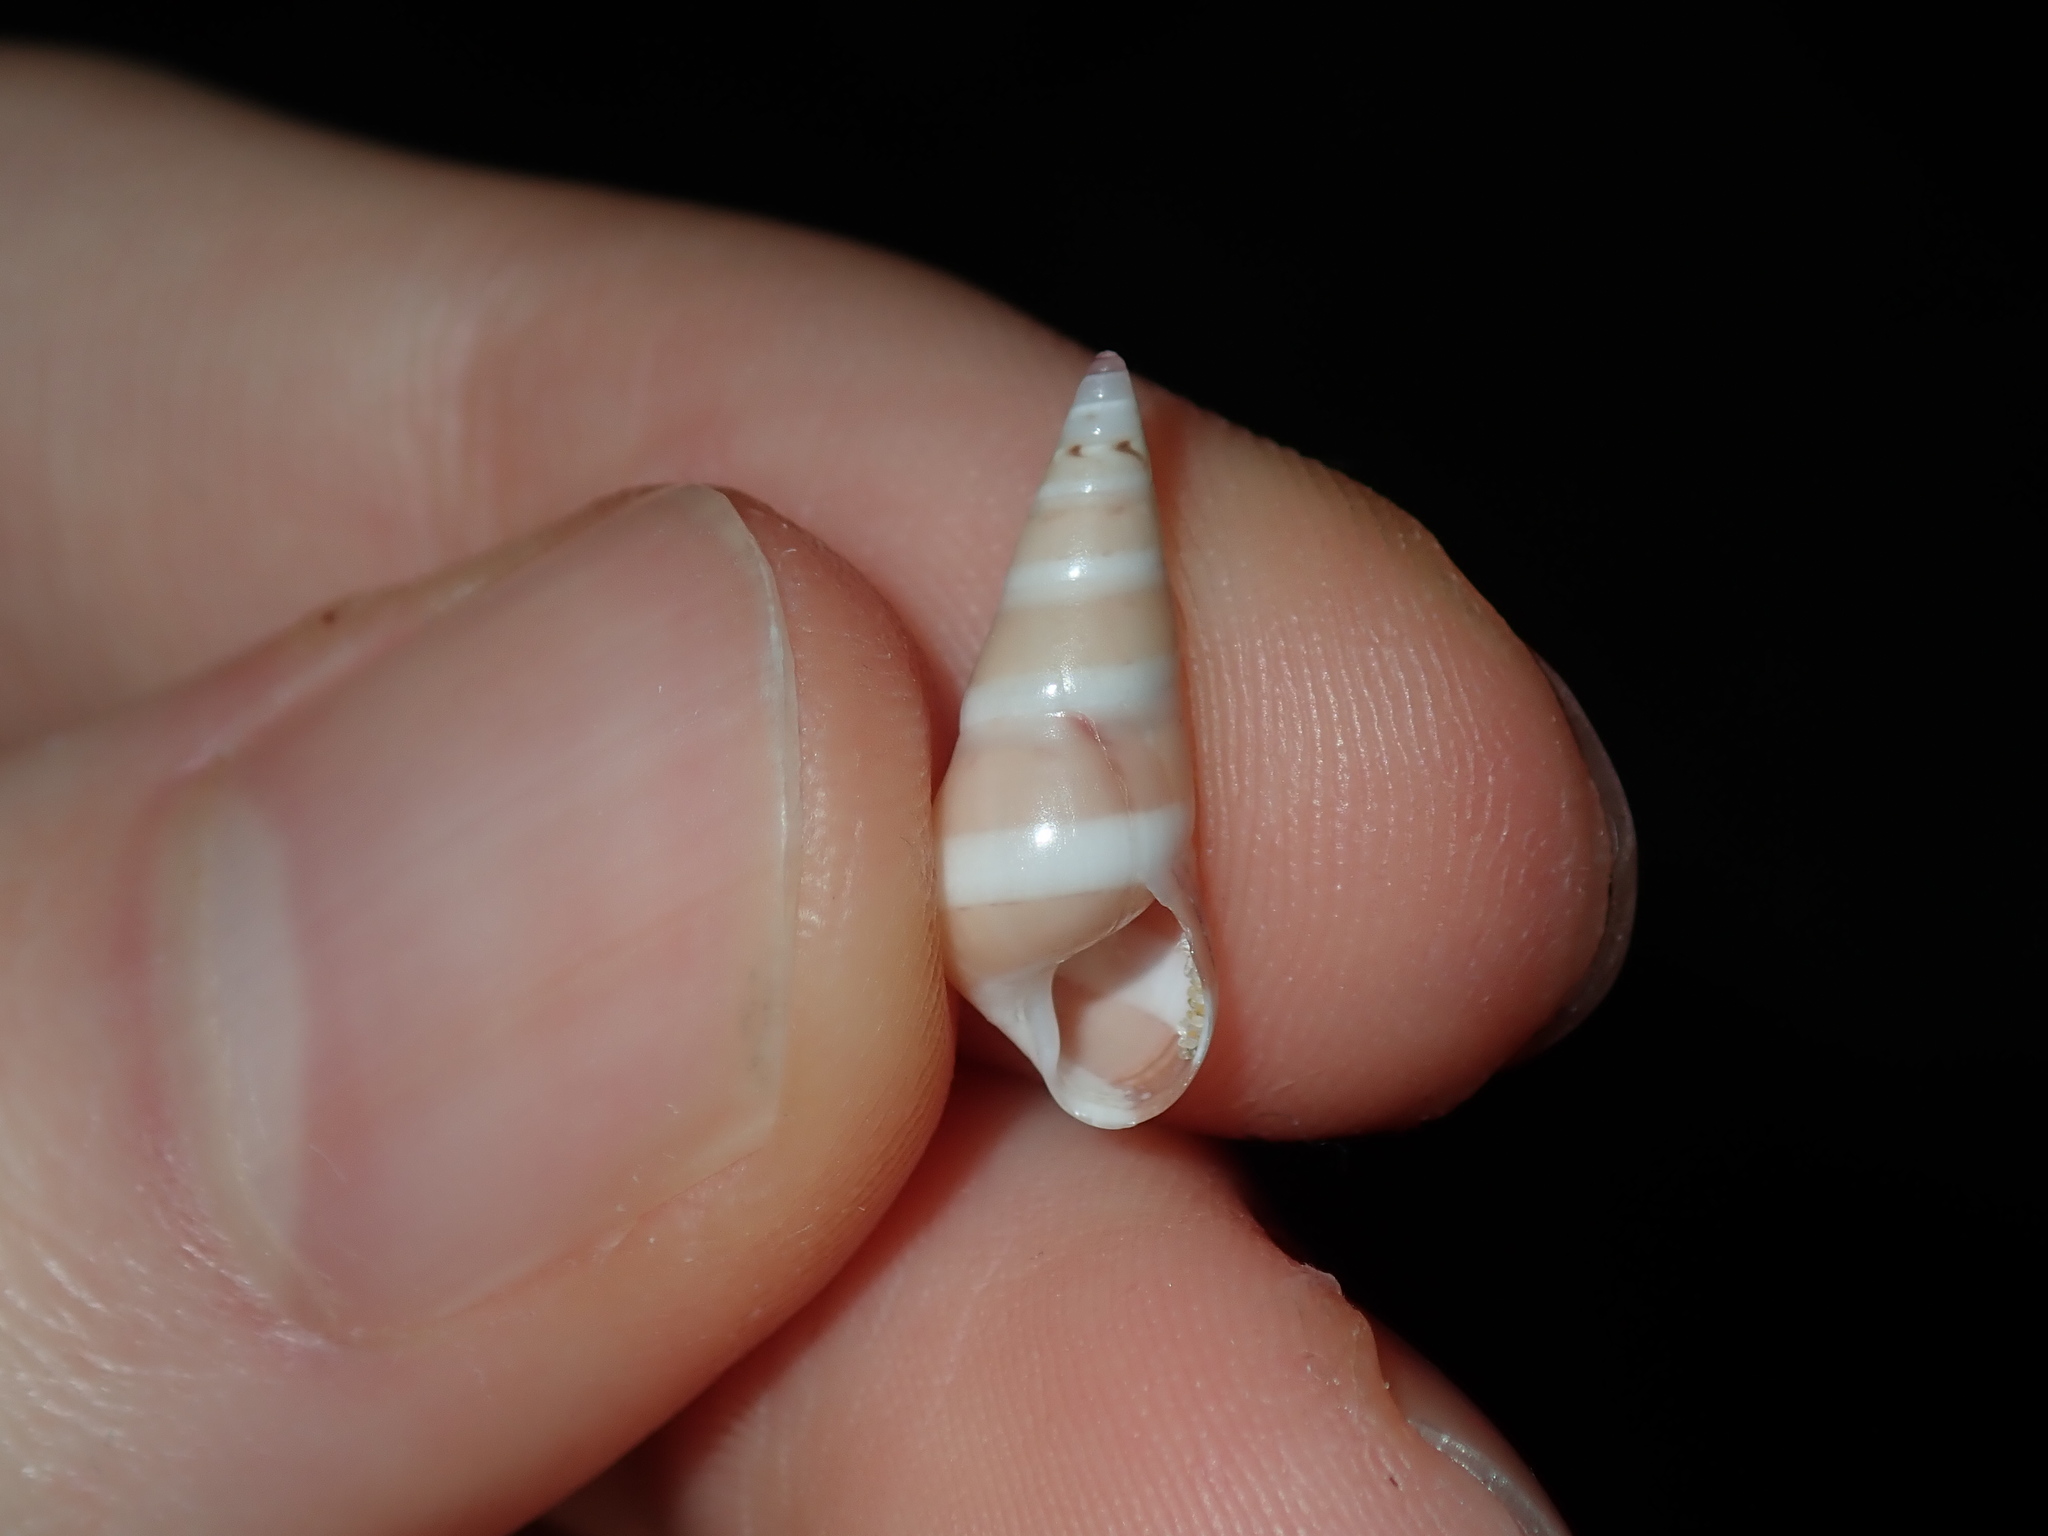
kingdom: Animalia
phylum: Mollusca
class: Gastropoda
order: Trochida
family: Trochidae
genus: Bankivia
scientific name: Bankivia fasciata
